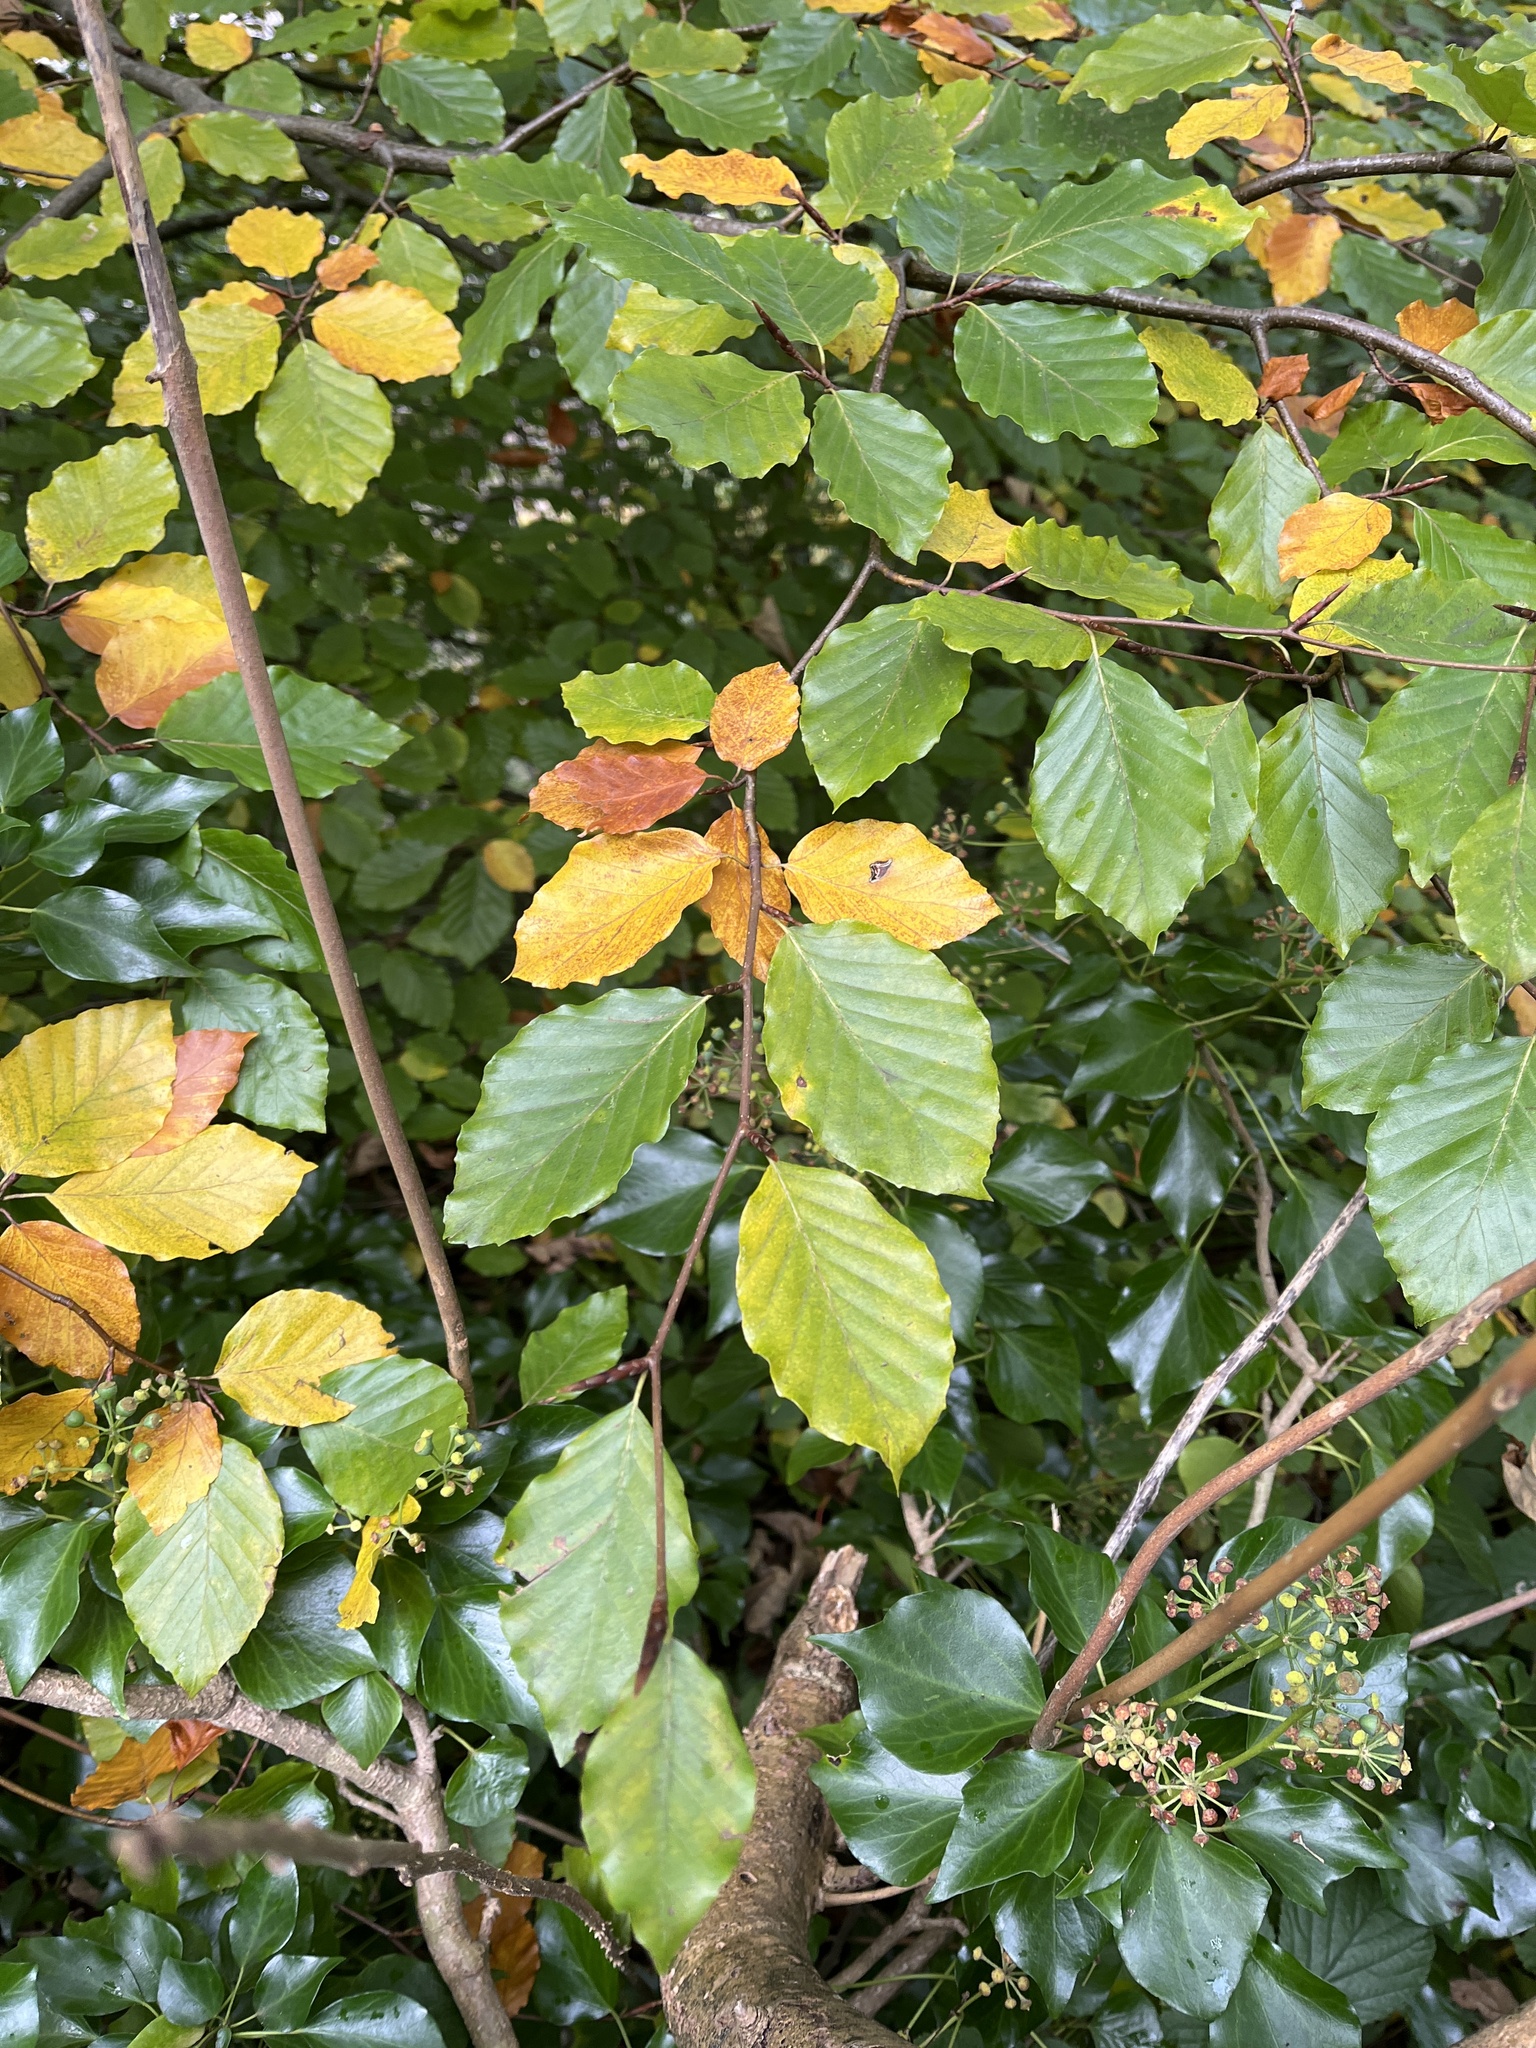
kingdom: Plantae
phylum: Tracheophyta
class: Magnoliopsida
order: Fagales
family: Fagaceae
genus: Fagus
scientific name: Fagus sylvatica
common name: Beech
